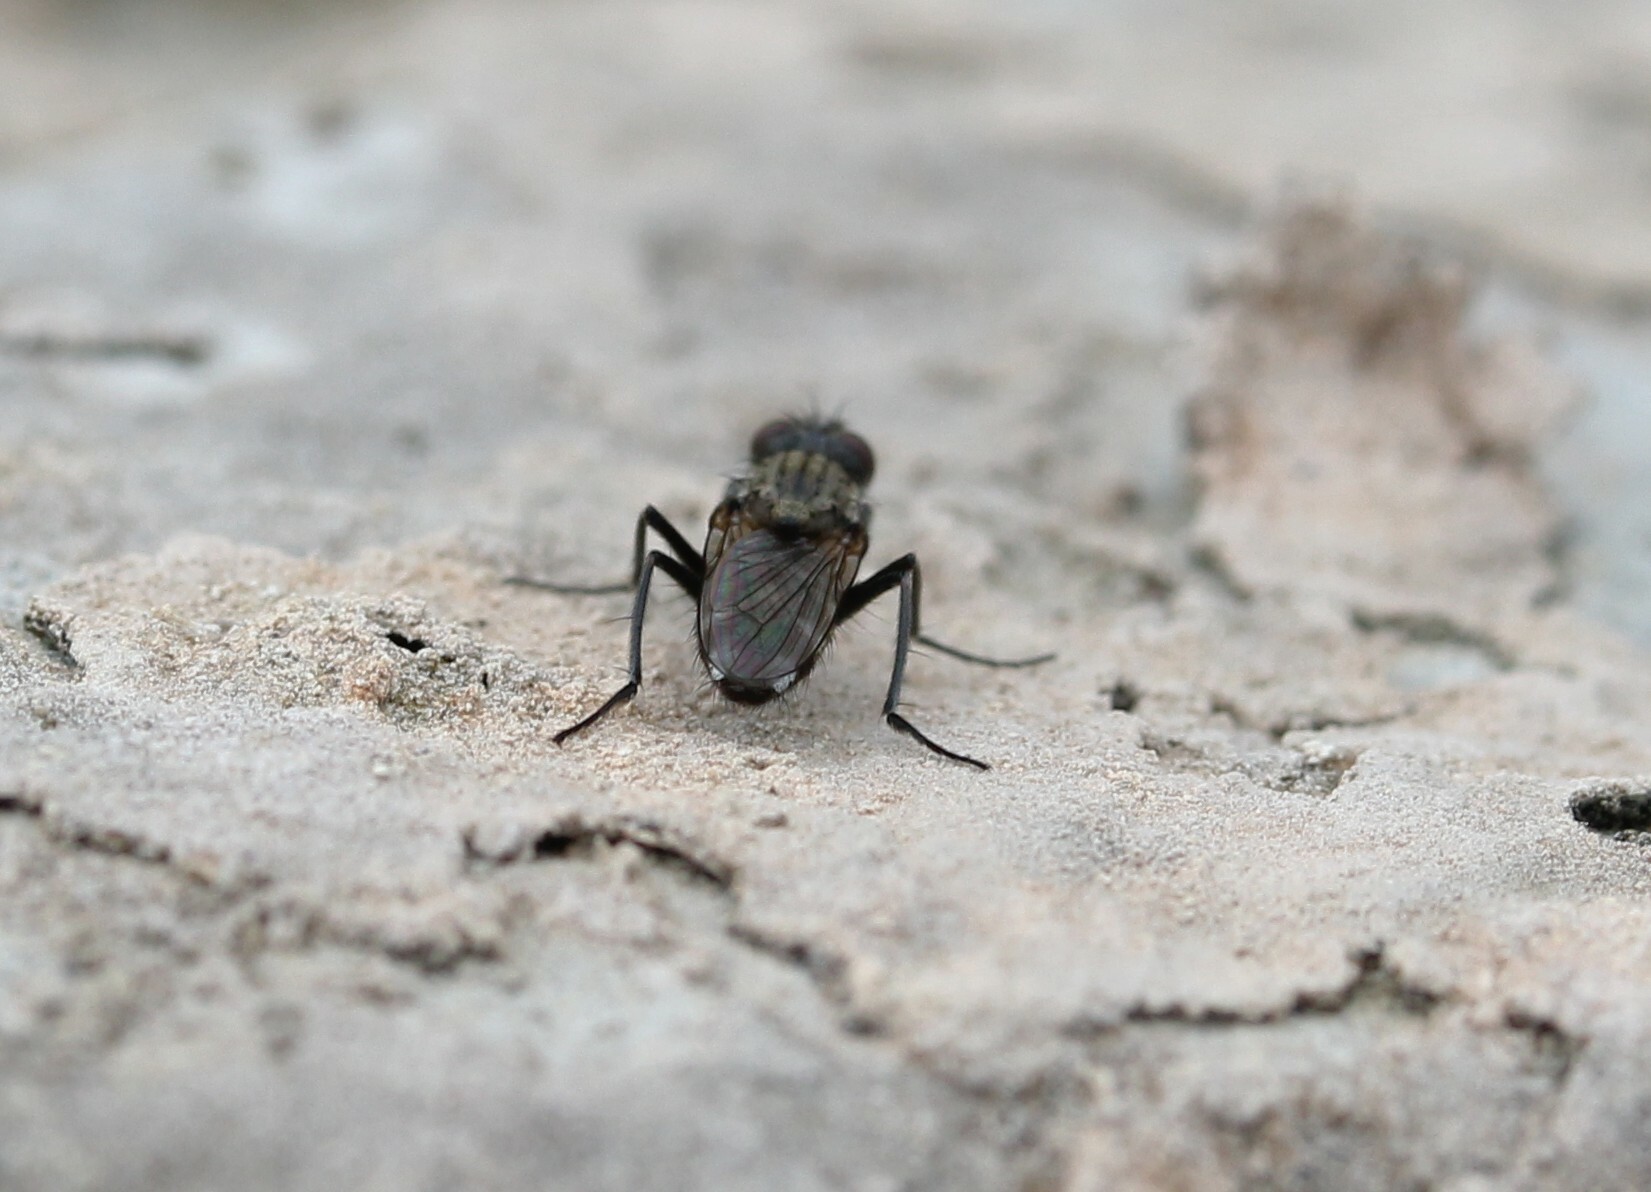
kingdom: Animalia
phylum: Arthropoda
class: Insecta
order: Diptera
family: Muscidae
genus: Lispe
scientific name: Lispe
